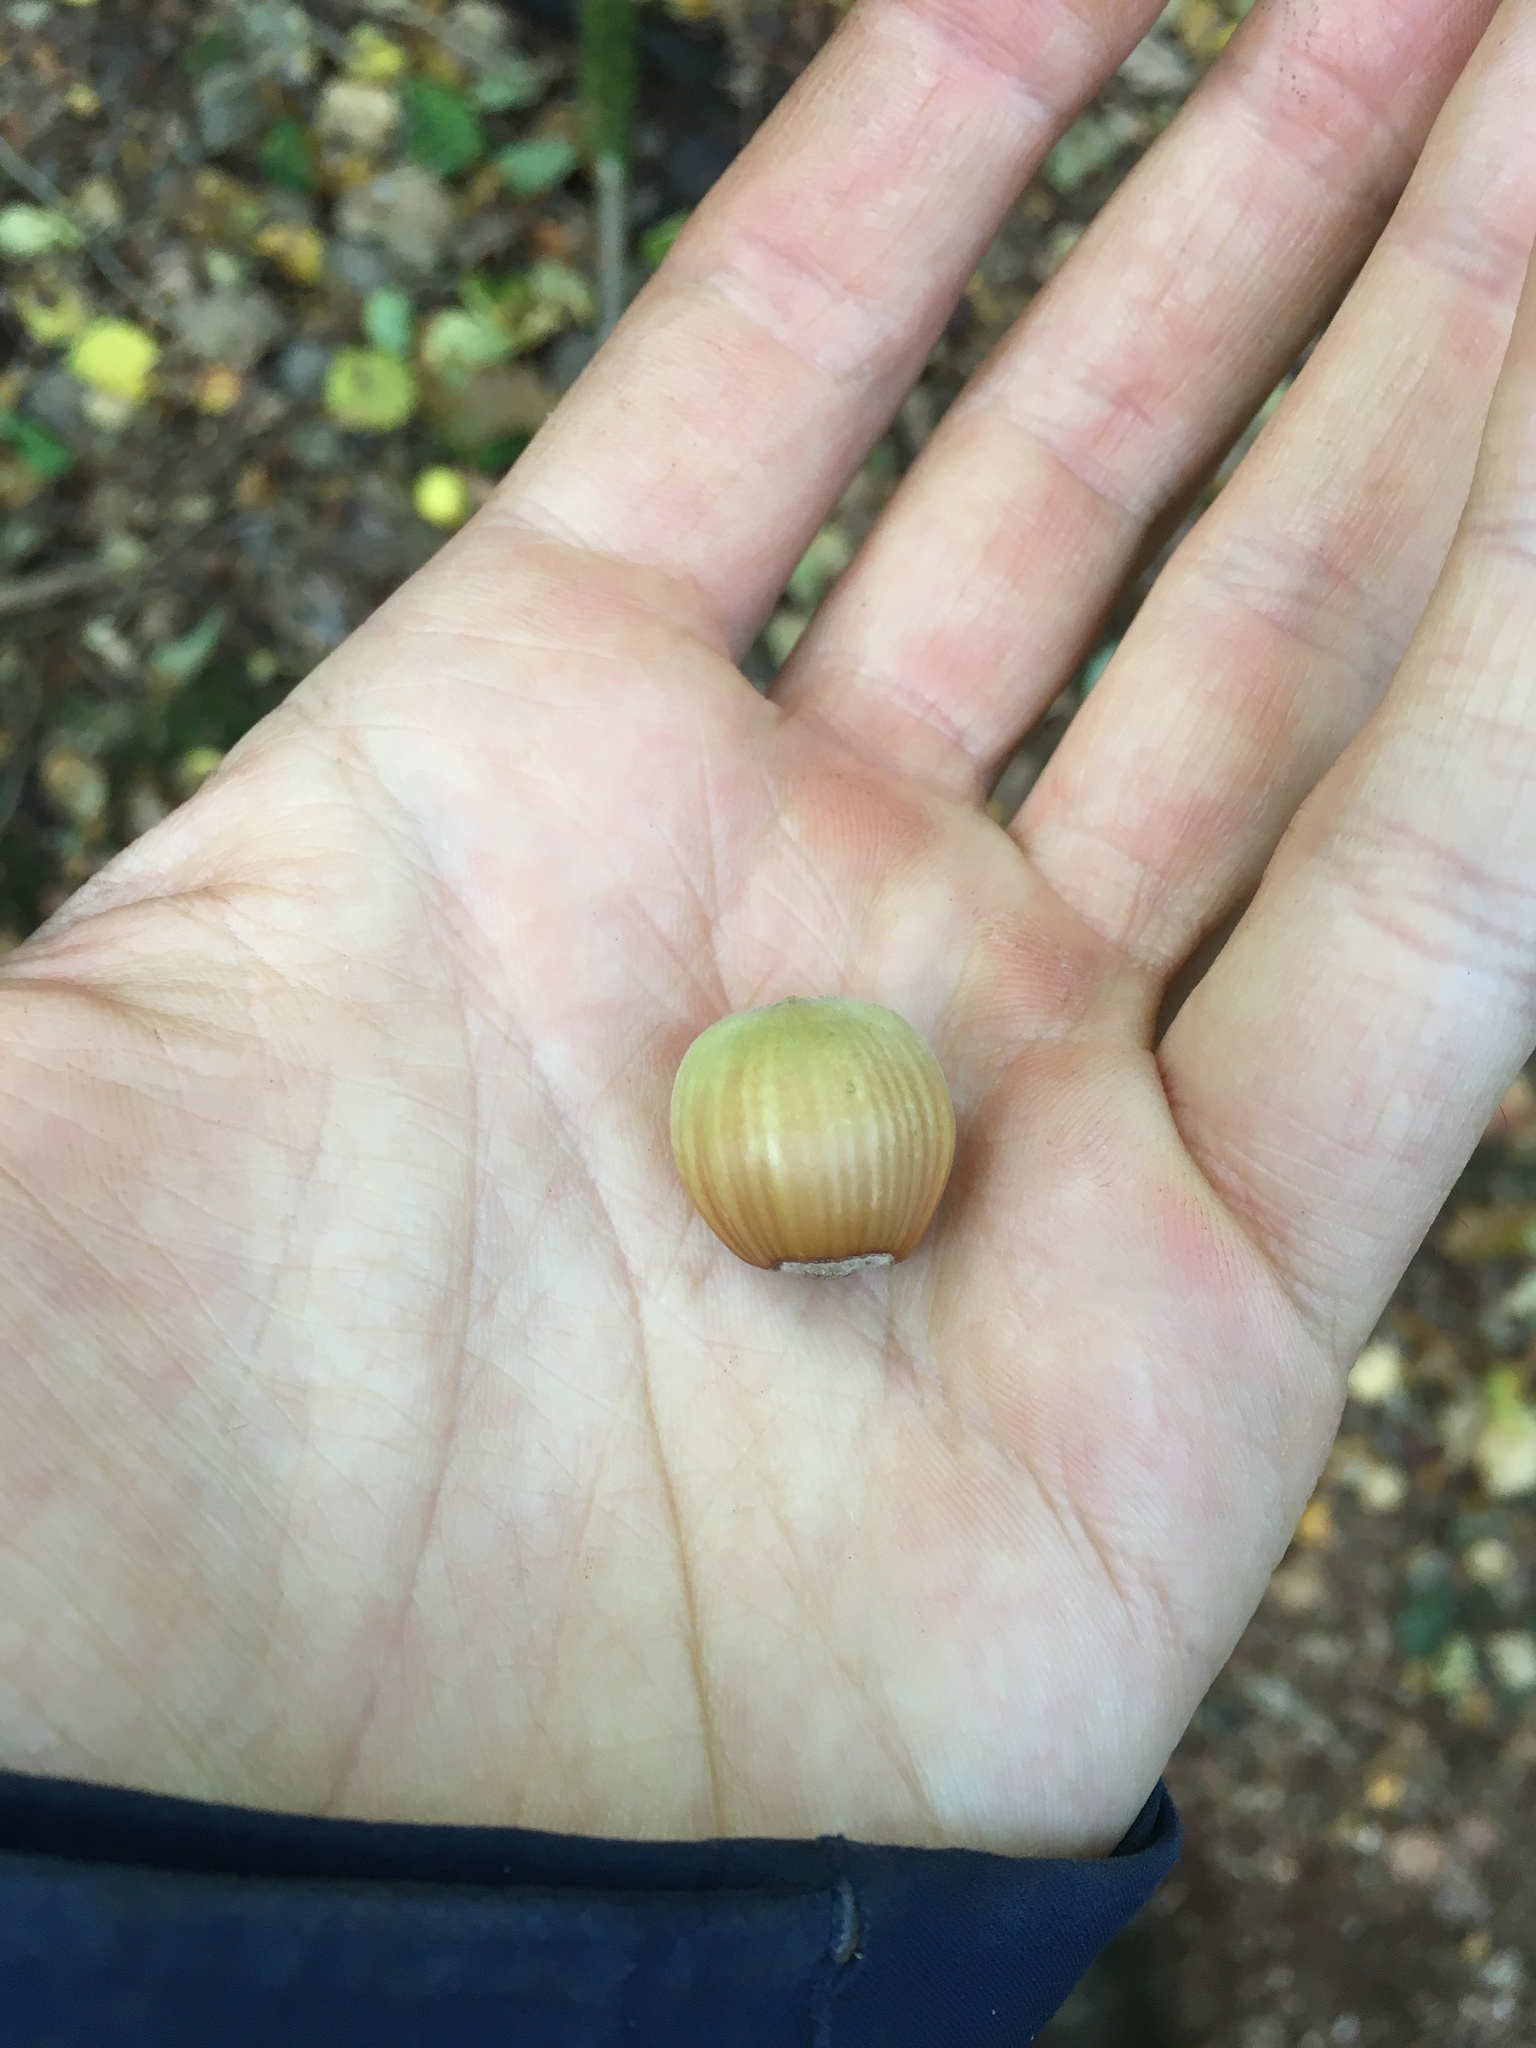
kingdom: Plantae
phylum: Tracheophyta
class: Magnoliopsida
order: Fagales
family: Betulaceae
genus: Corylus
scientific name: Corylus avellana
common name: European hazel
